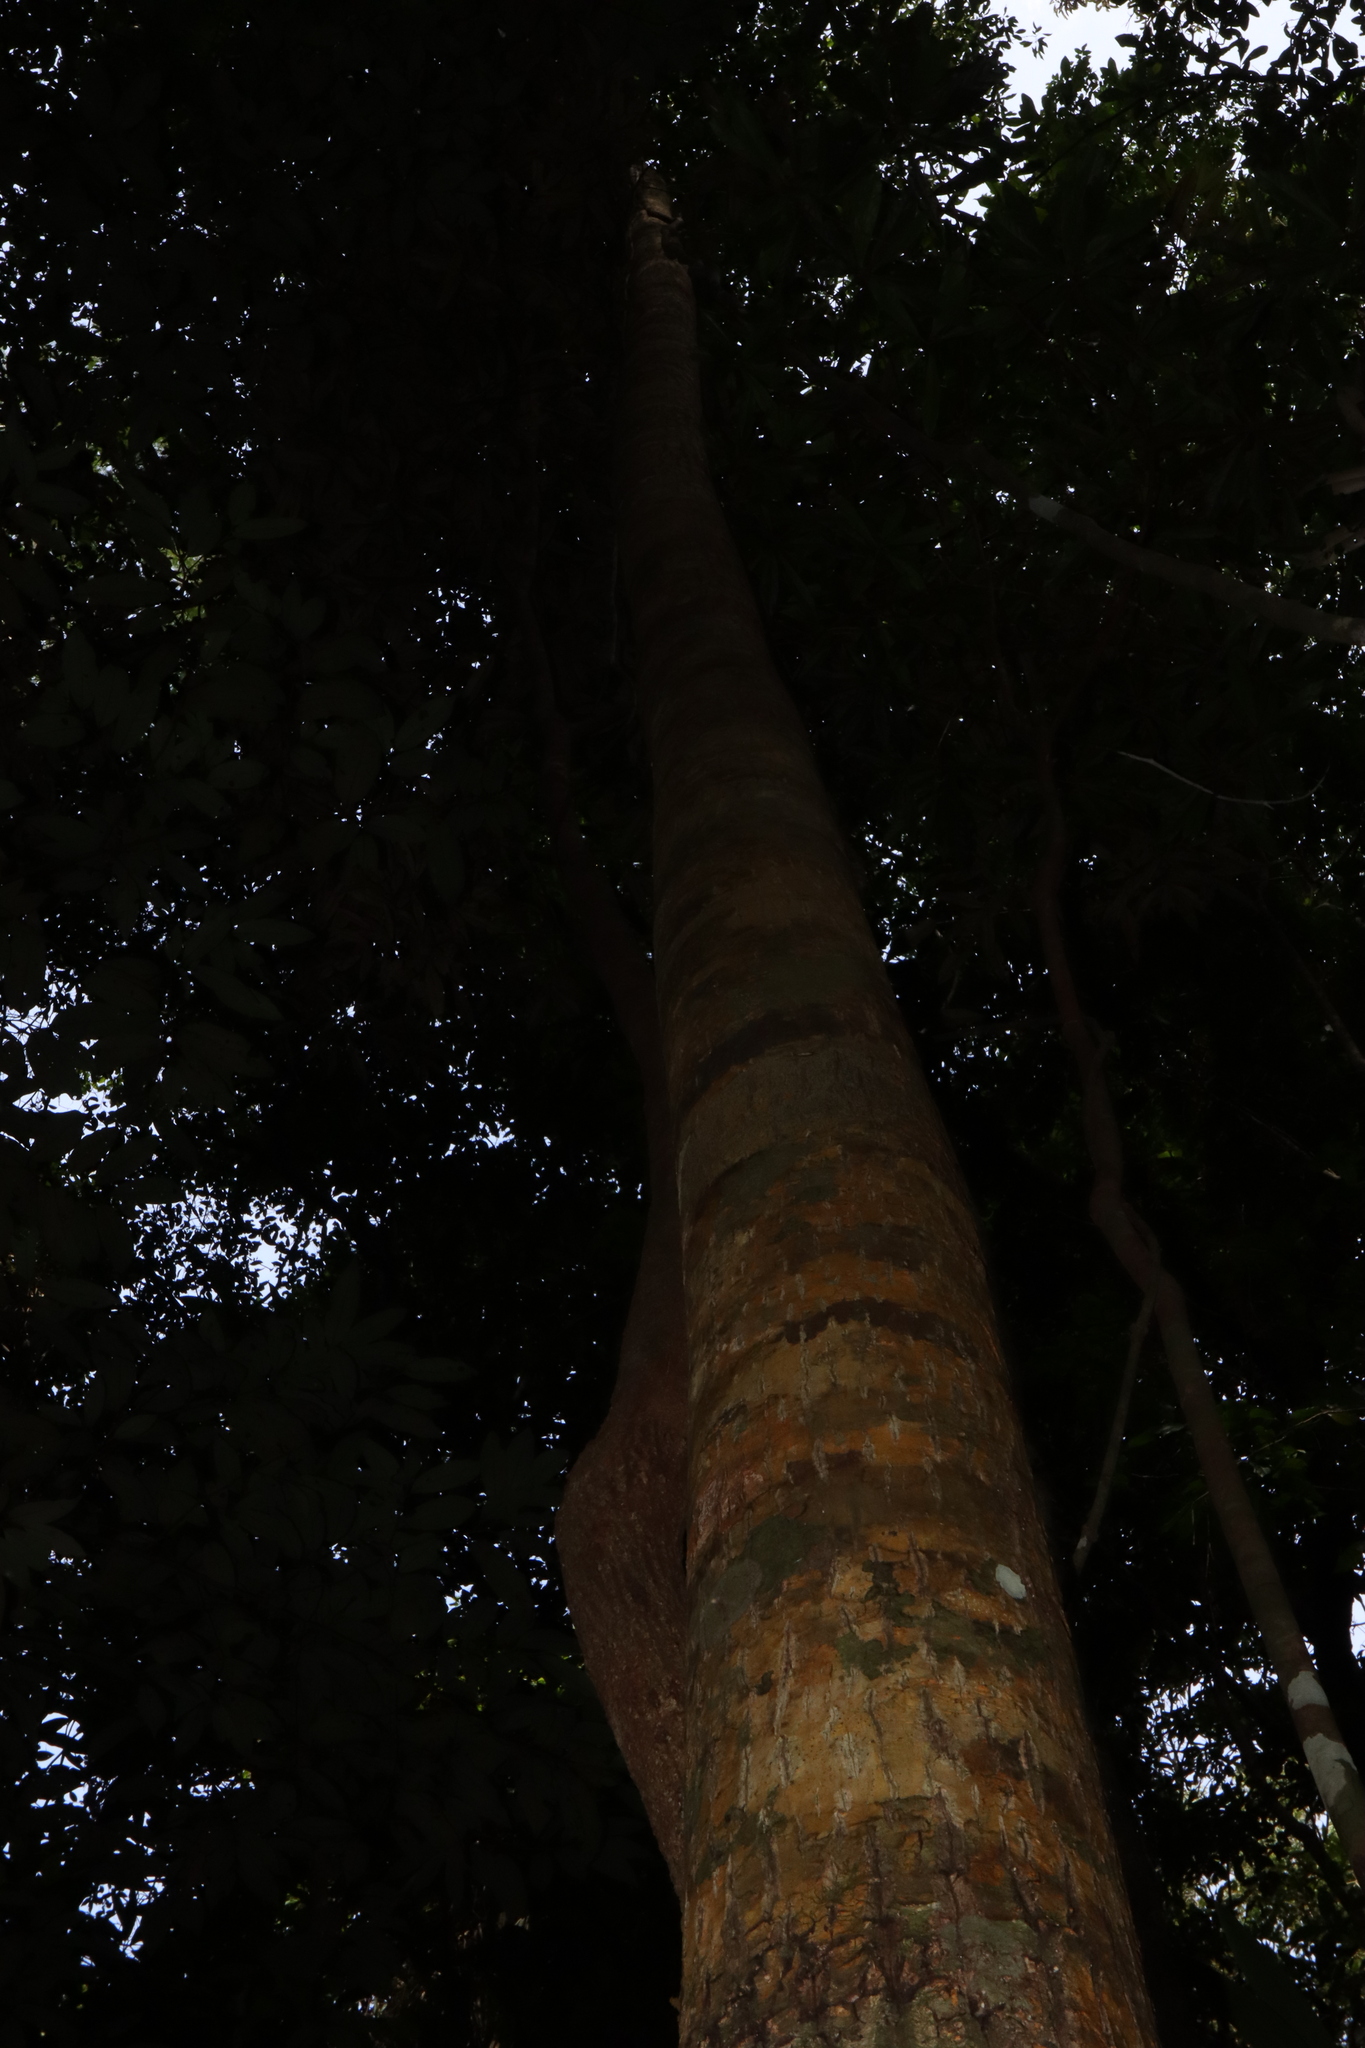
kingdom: Plantae
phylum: Tracheophyta
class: Magnoliopsida
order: Malpighiales
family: Calophyllaceae
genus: Calophyllum
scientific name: Calophyllum sil
